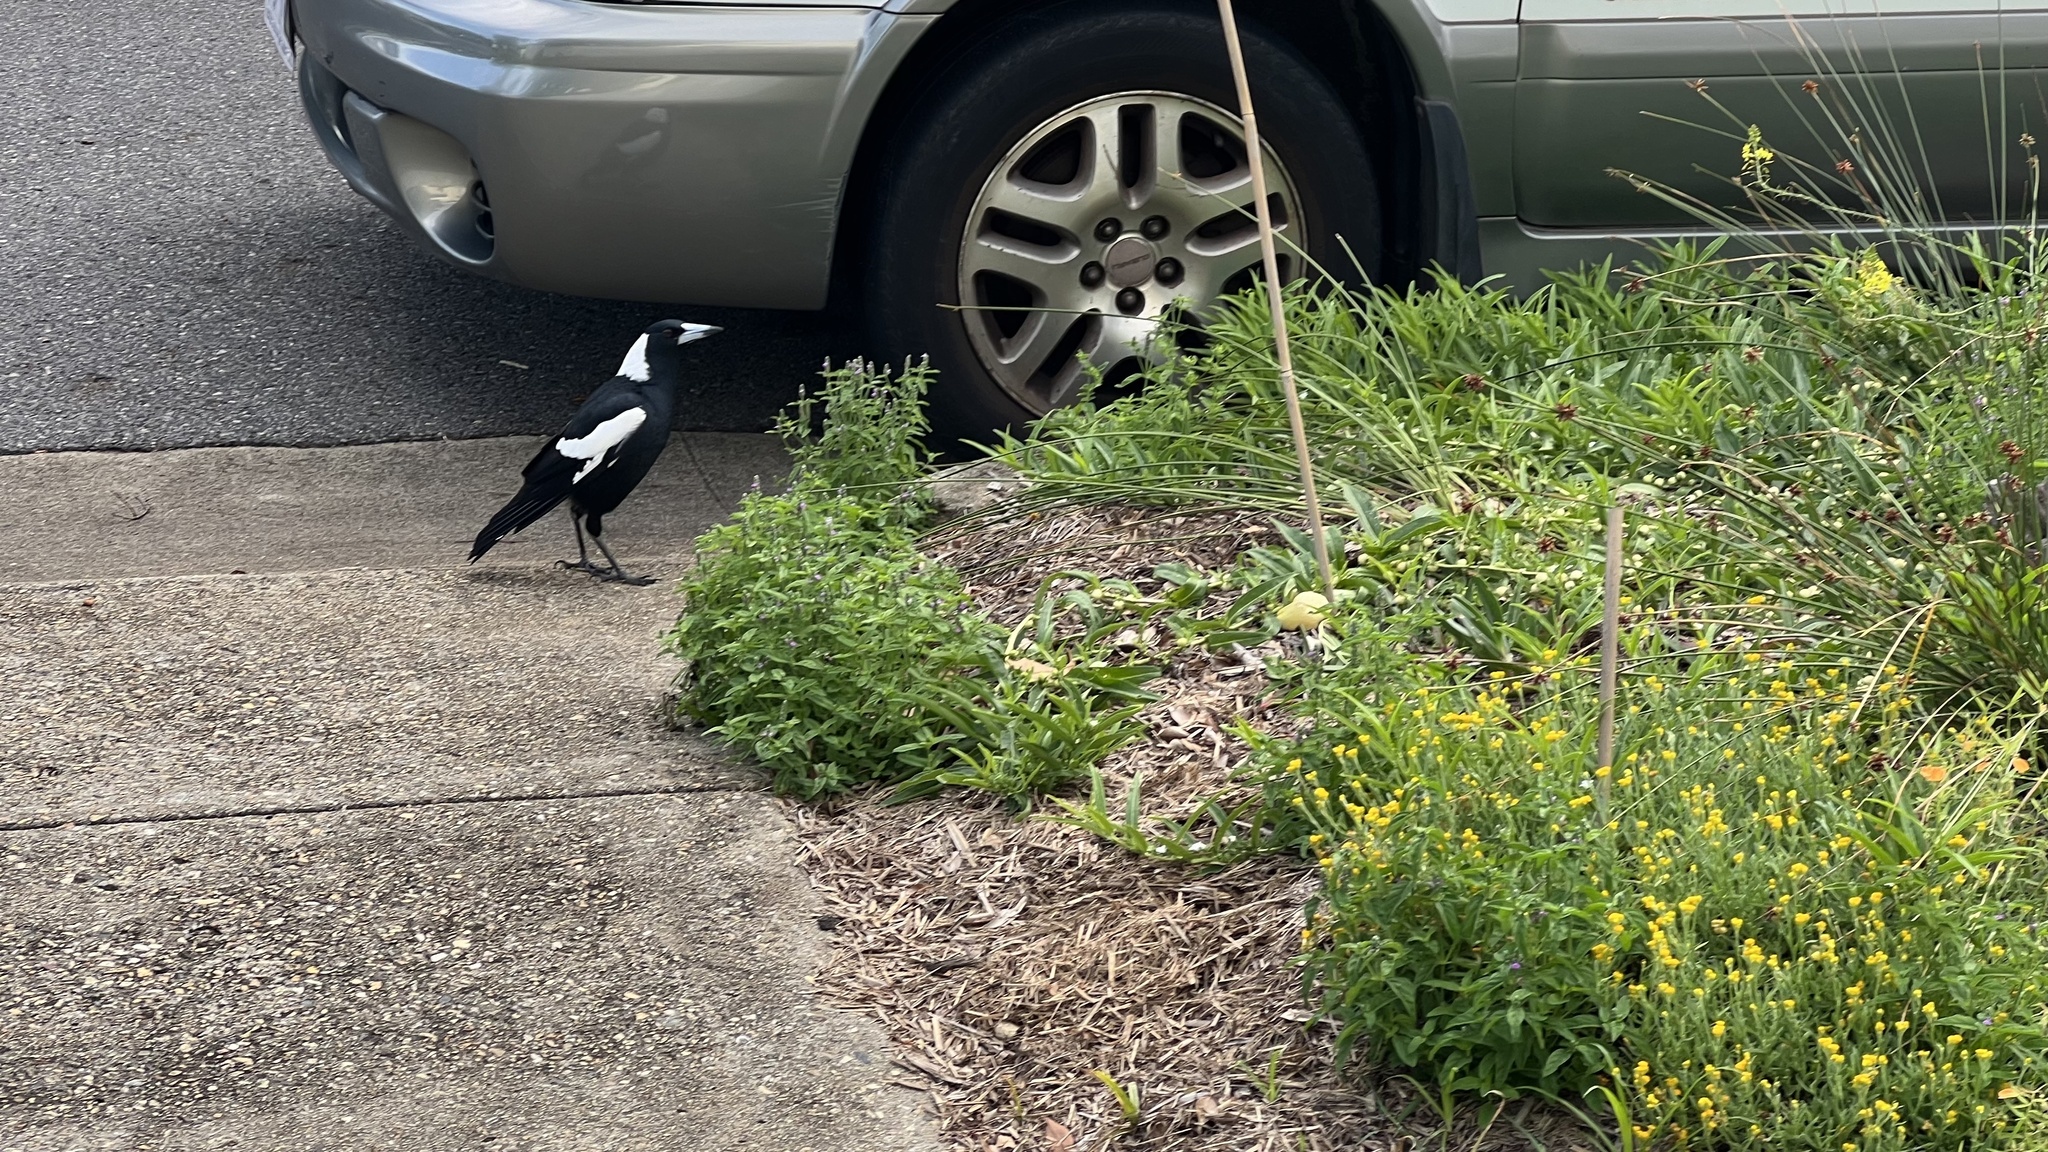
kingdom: Animalia
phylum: Chordata
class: Aves
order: Passeriformes
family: Cracticidae
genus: Gymnorhina
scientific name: Gymnorhina tibicen
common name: Australian magpie
